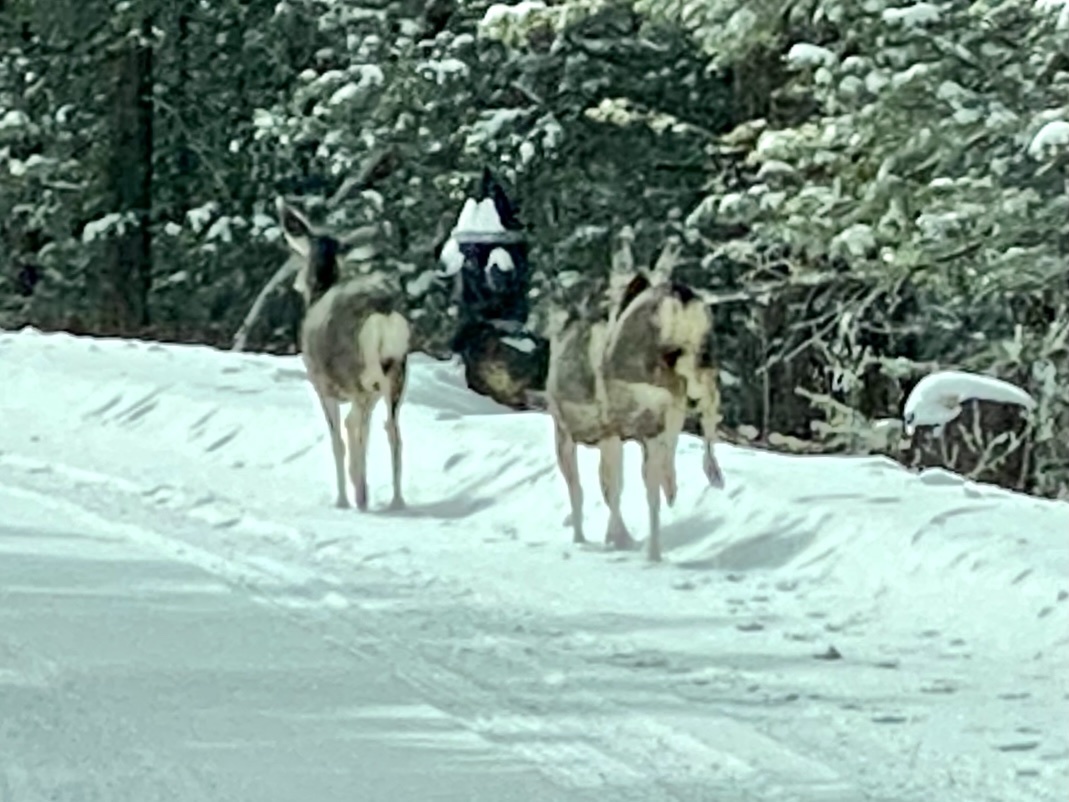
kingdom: Animalia
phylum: Chordata
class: Mammalia
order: Artiodactyla
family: Cervidae
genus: Odocoileus
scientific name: Odocoileus hemionus
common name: Mule deer
